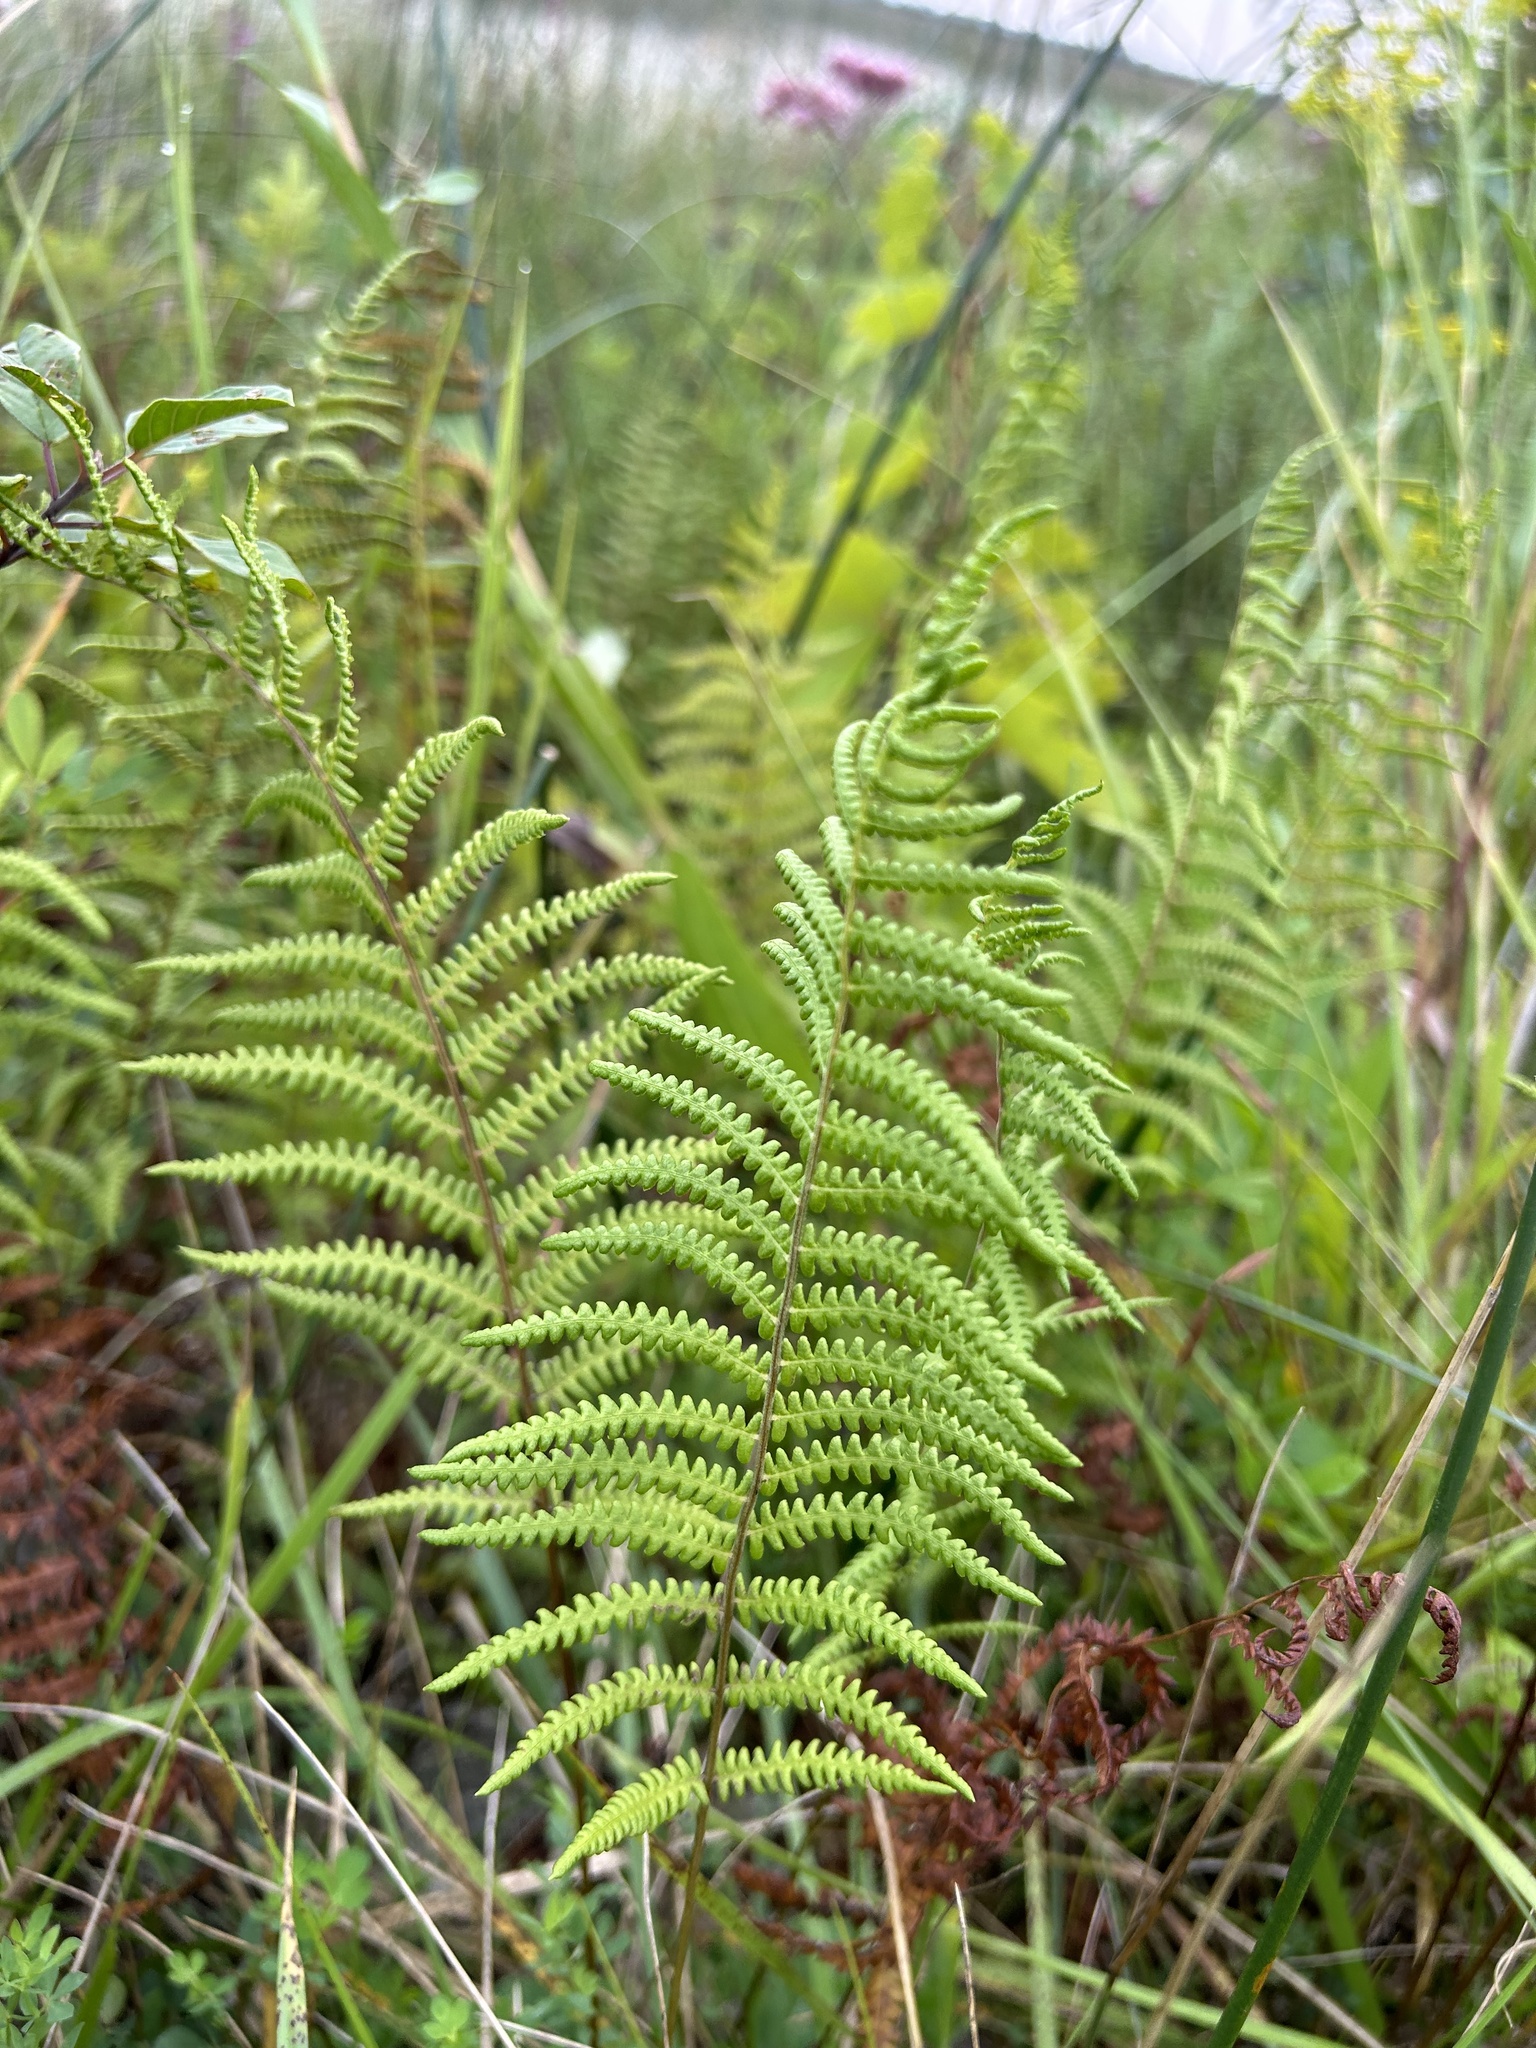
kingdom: Plantae
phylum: Tracheophyta
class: Polypodiopsida
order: Polypodiales
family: Thelypteridaceae
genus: Thelypteris
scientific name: Thelypteris palustris
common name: Marsh fern
